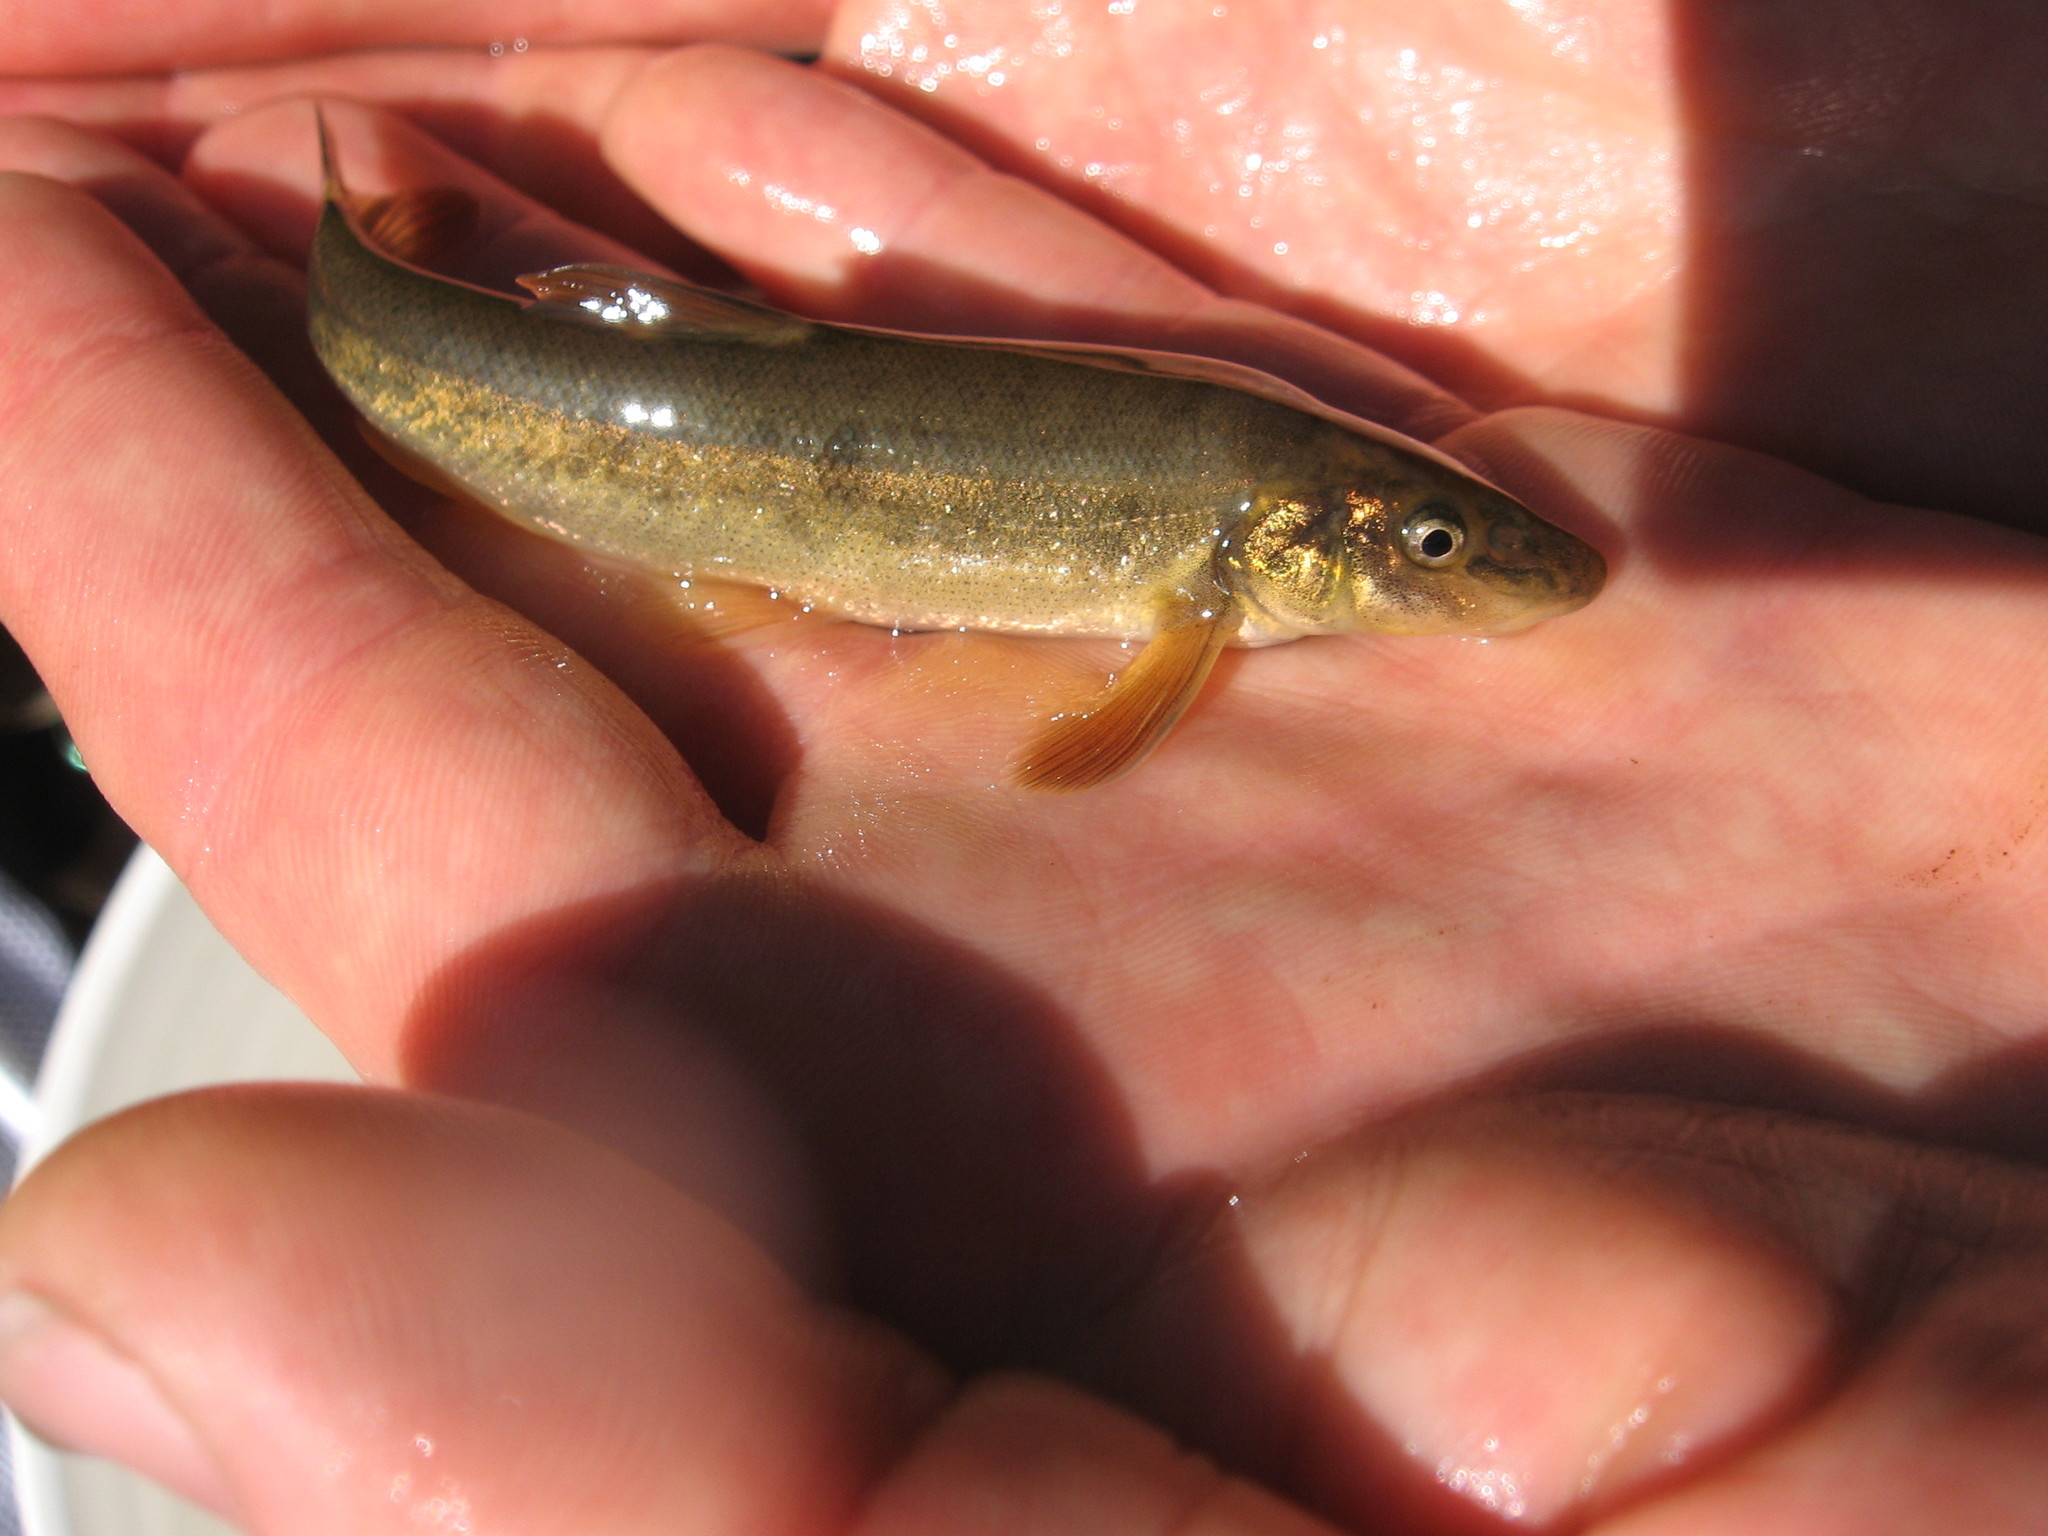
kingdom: Animalia
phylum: Chordata
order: Cypriniformes
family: Cyprinidae
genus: Rhinichthys
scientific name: Rhinichthys cataractae
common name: Longnose dace
